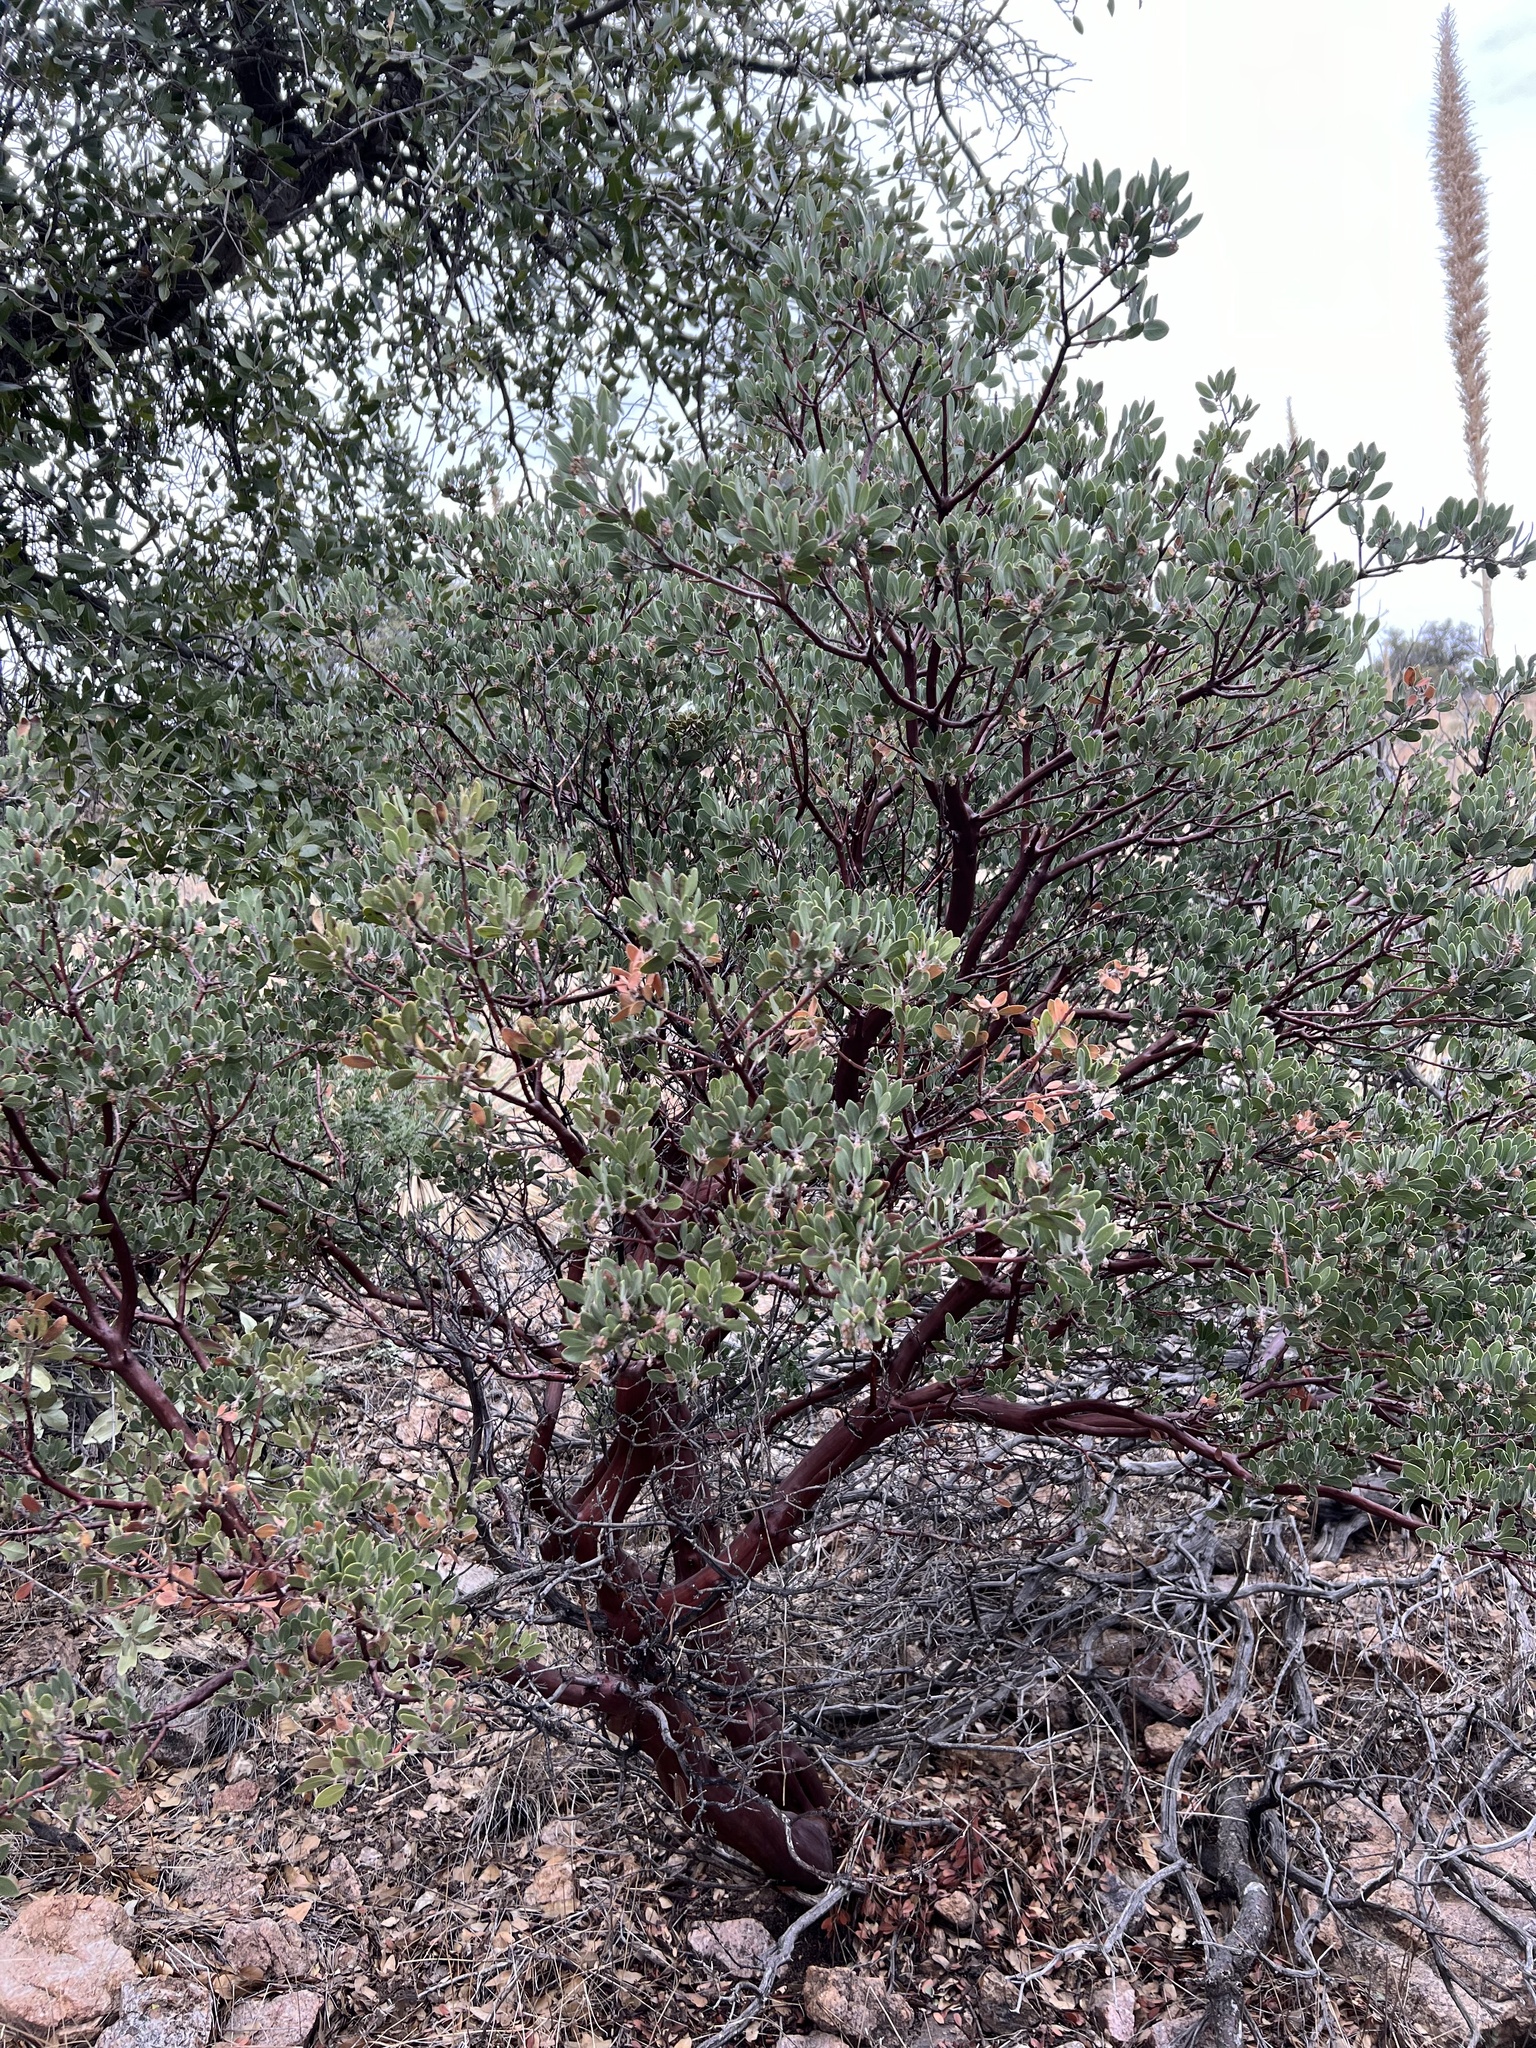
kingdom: Plantae
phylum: Tracheophyta
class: Magnoliopsida
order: Ericales
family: Ericaceae
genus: Arctostaphylos
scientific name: Arctostaphylos pungens
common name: Mexican manzanita
